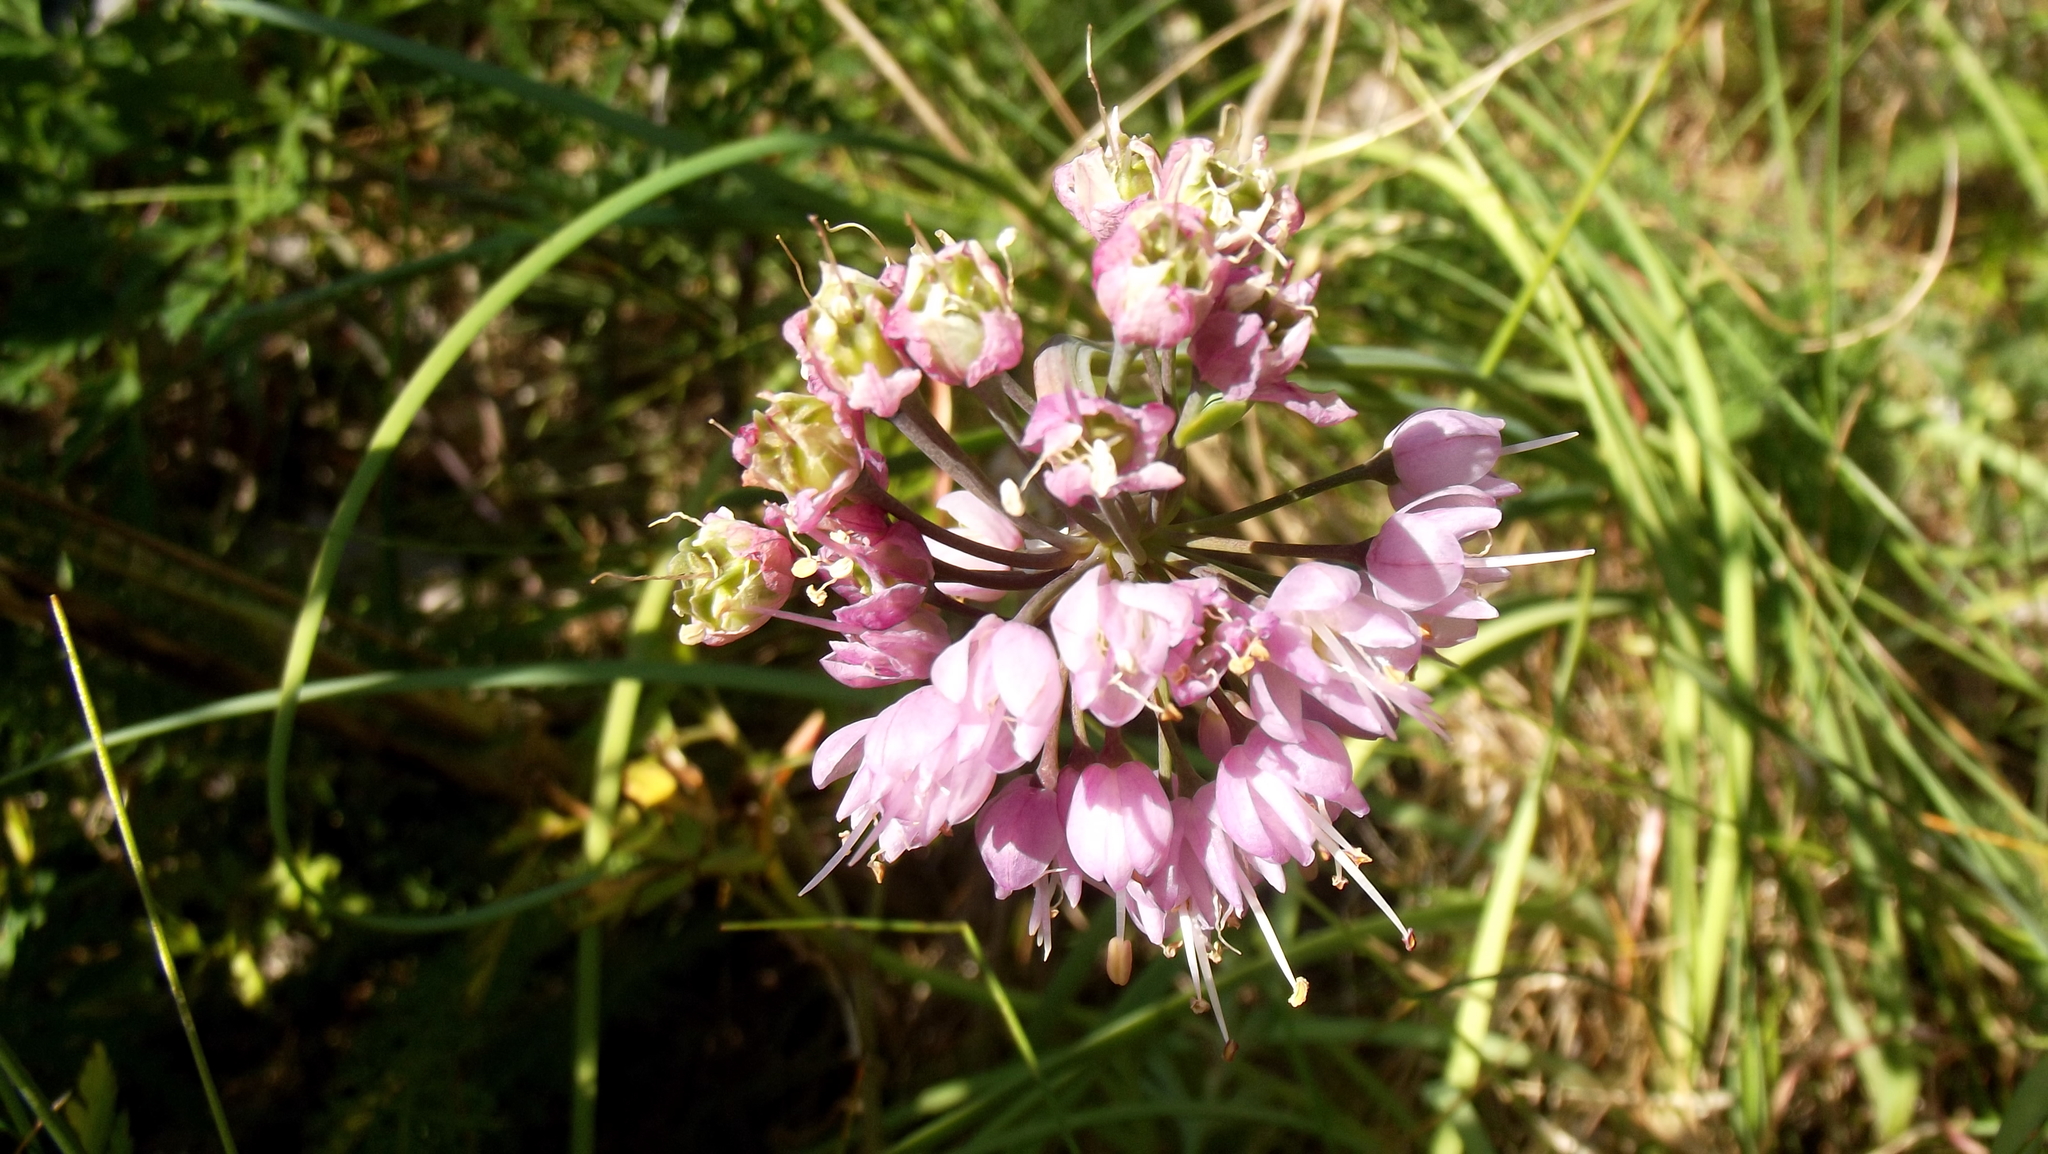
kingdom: Plantae
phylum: Tracheophyta
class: Liliopsida
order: Asparagales
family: Amaryllidaceae
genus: Allium
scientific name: Allium cernuum
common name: Nodding onion
